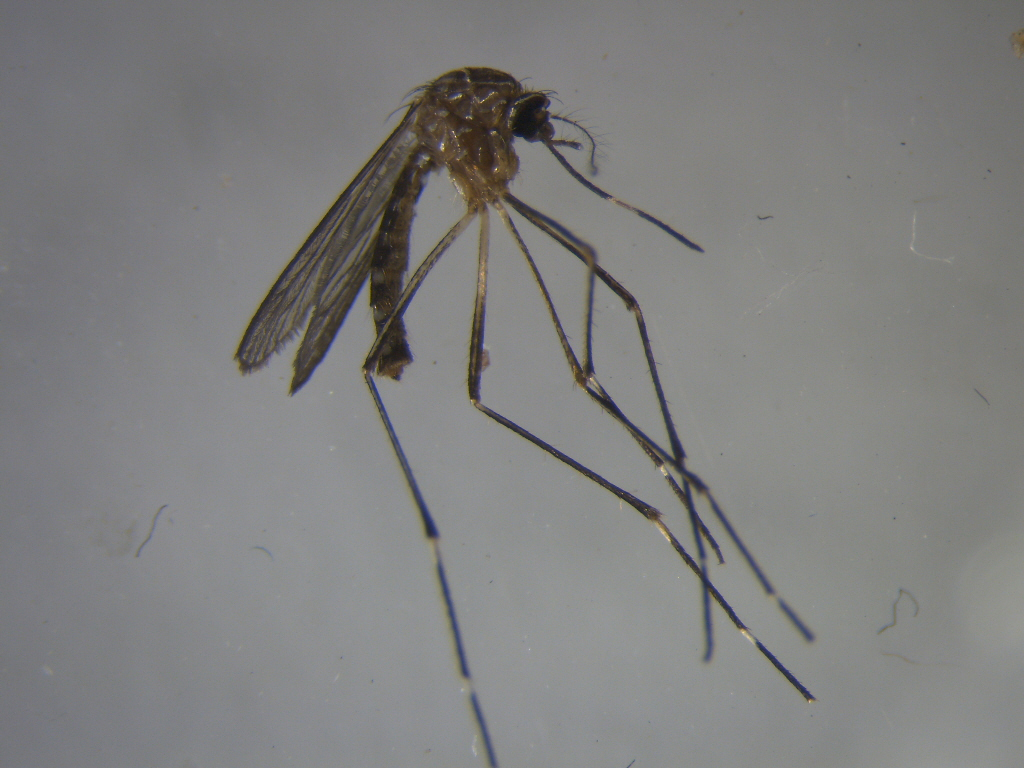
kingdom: Animalia
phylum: Arthropoda
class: Insecta
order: Diptera
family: Culicidae
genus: Aedes
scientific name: Aedes notoscriptus
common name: Australian backyard mosquito
